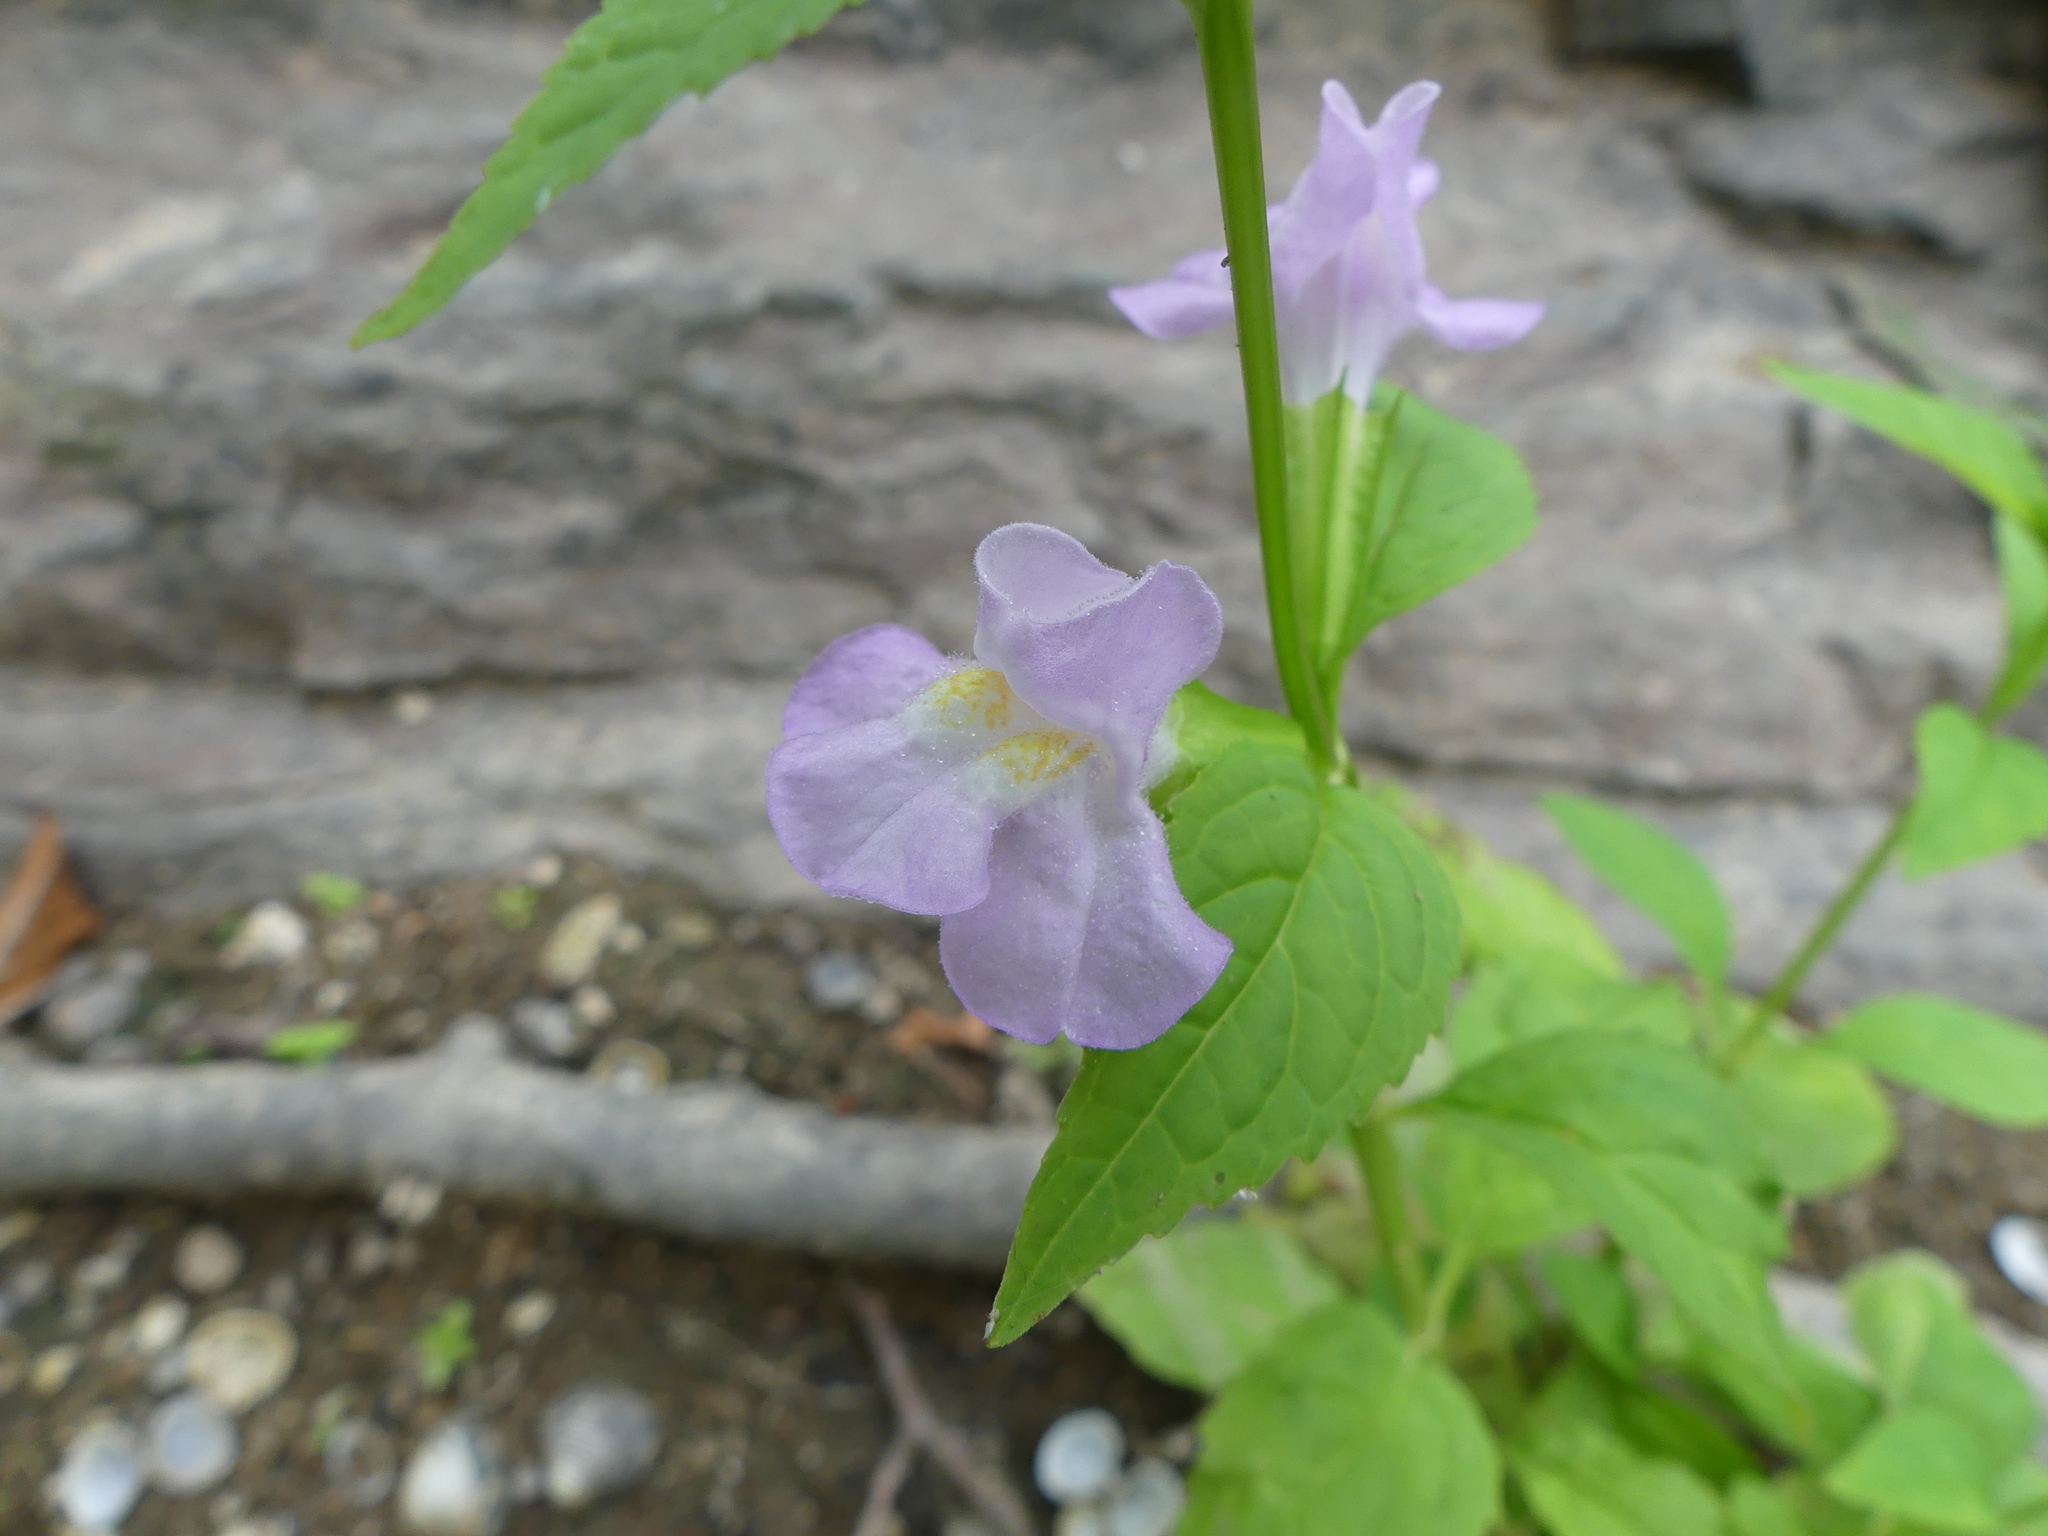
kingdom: Plantae
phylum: Tracheophyta
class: Magnoliopsida
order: Lamiales
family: Phrymaceae
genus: Mimulus
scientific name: Mimulus alatus
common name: Sharp-wing monkey-flower
